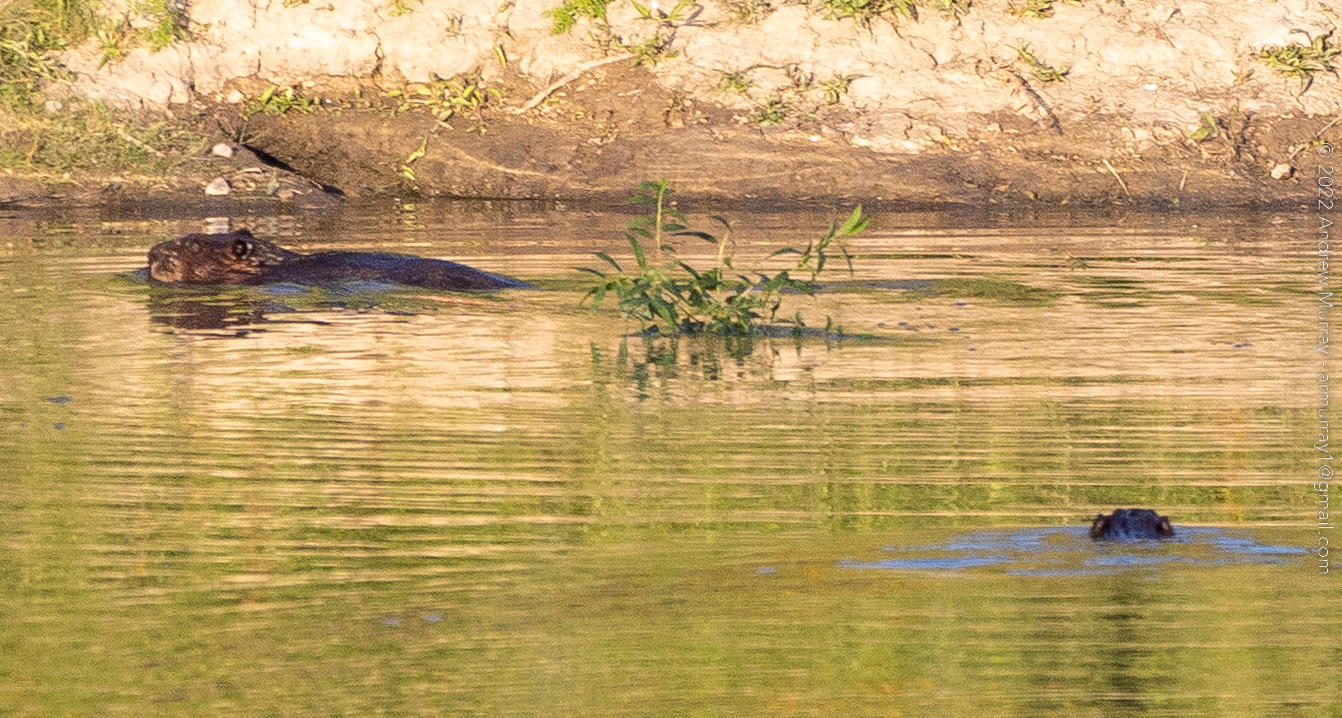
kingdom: Animalia
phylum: Chordata
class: Mammalia
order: Rodentia
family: Castoridae
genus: Castor
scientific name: Castor canadensis
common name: American beaver
